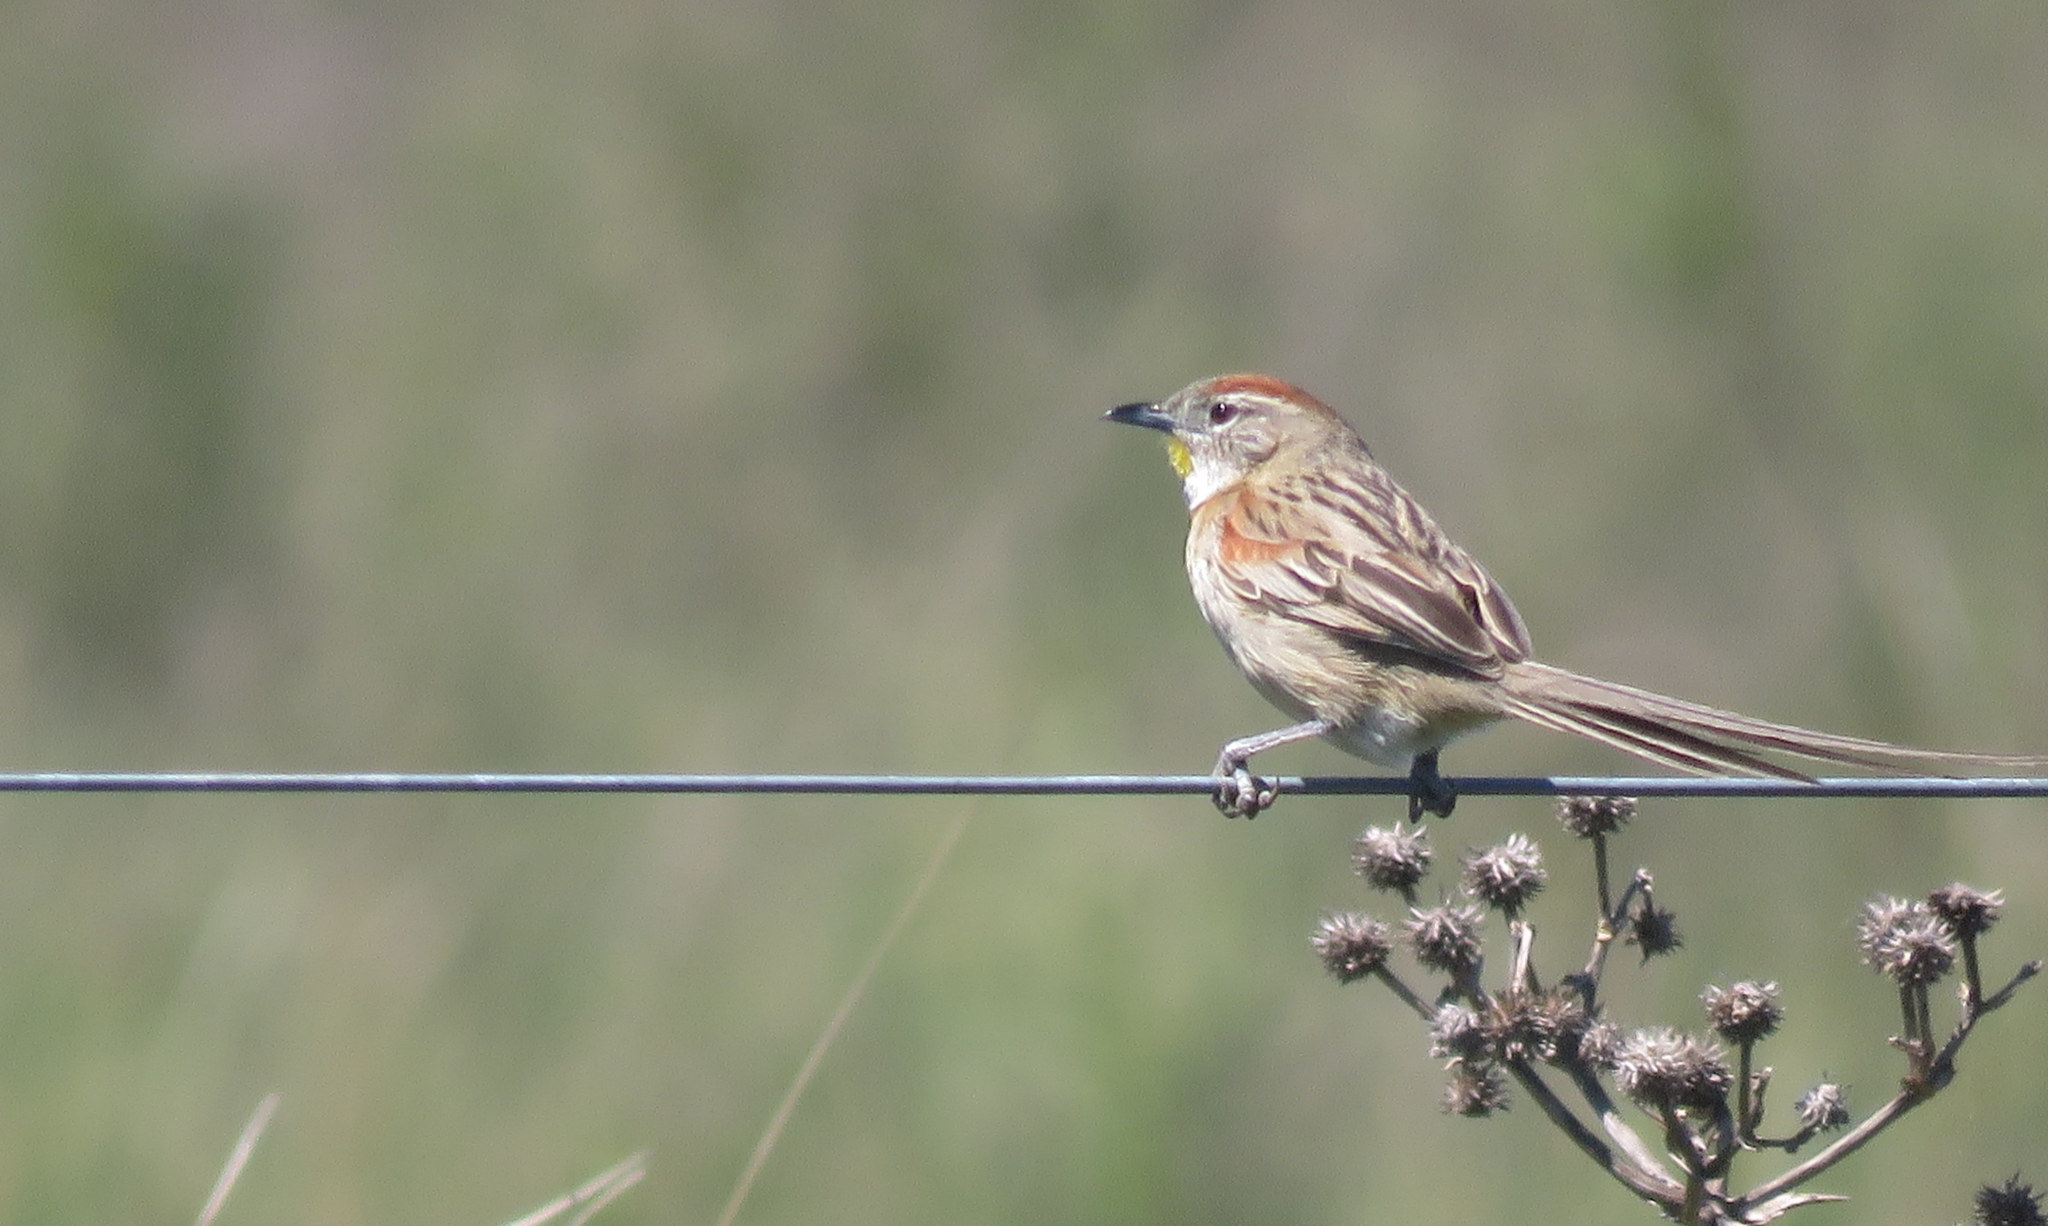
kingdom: Animalia
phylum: Chordata
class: Aves
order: Passeriformes
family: Furnariidae
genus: Schoeniophylax
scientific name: Schoeniophylax phryganophilus
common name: Chotoy spinetail
